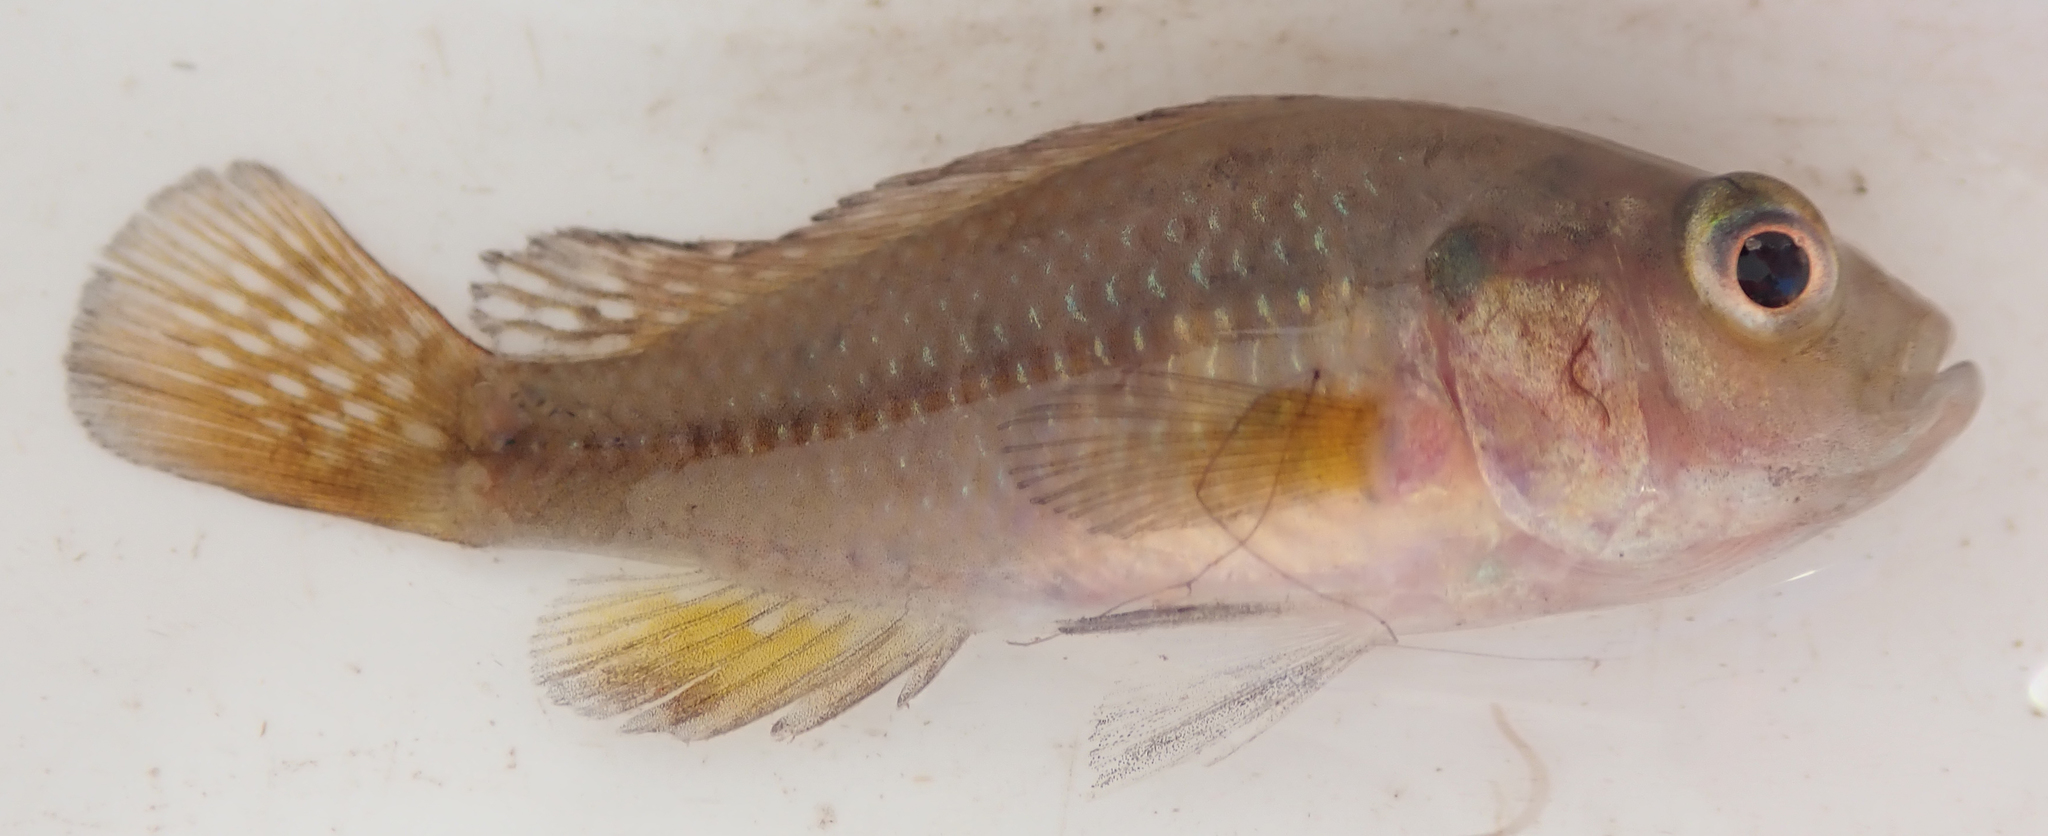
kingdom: Animalia
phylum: Chordata
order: Perciformes
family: Cichlidae
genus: Pseudocrenilabrus
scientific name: Pseudocrenilabrus philander
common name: Southern mouthbrooder
